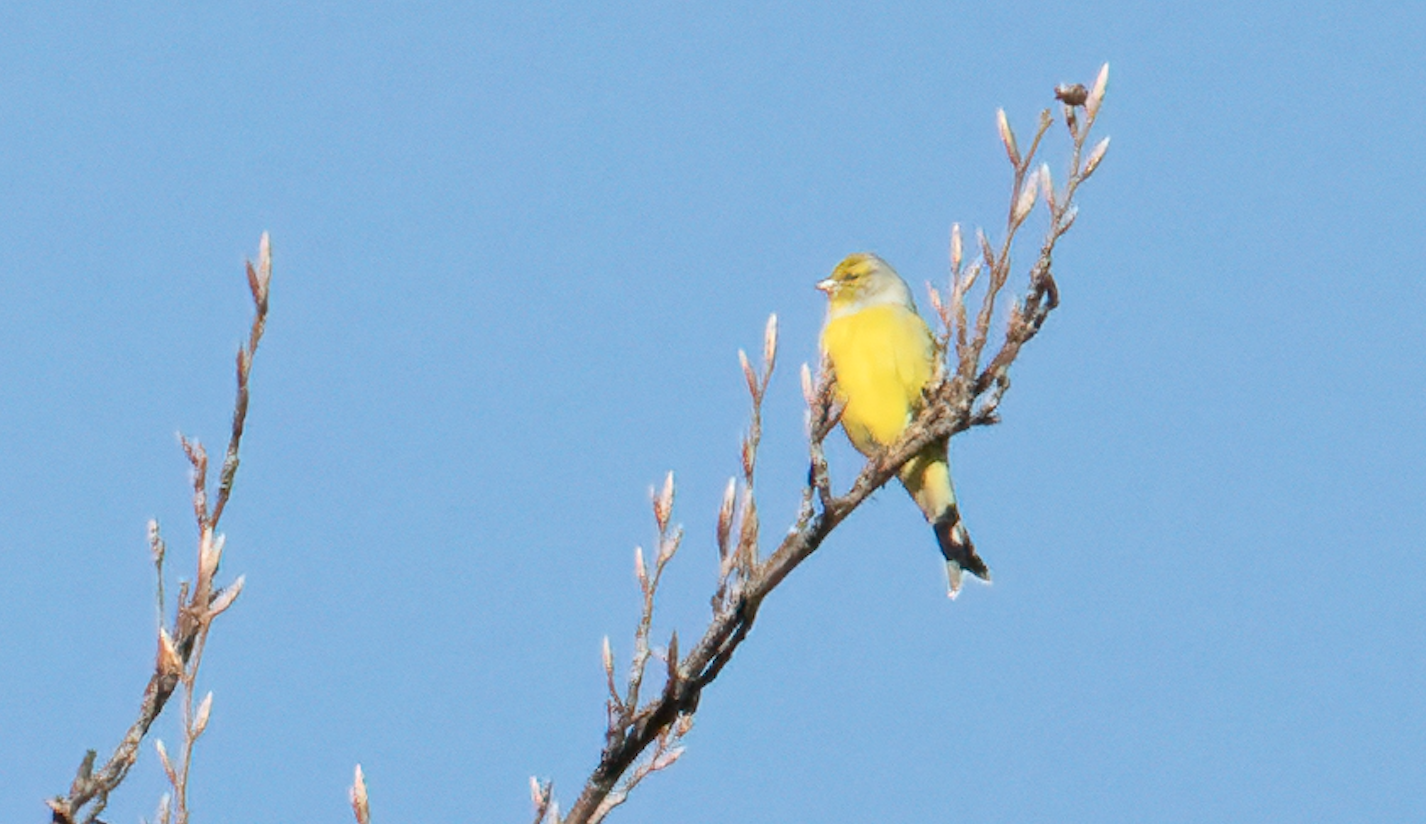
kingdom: Animalia
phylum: Chordata
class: Aves
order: Passeriformes
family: Fringillidae
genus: Carduelis
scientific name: Carduelis citrinella
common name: Citril finch
